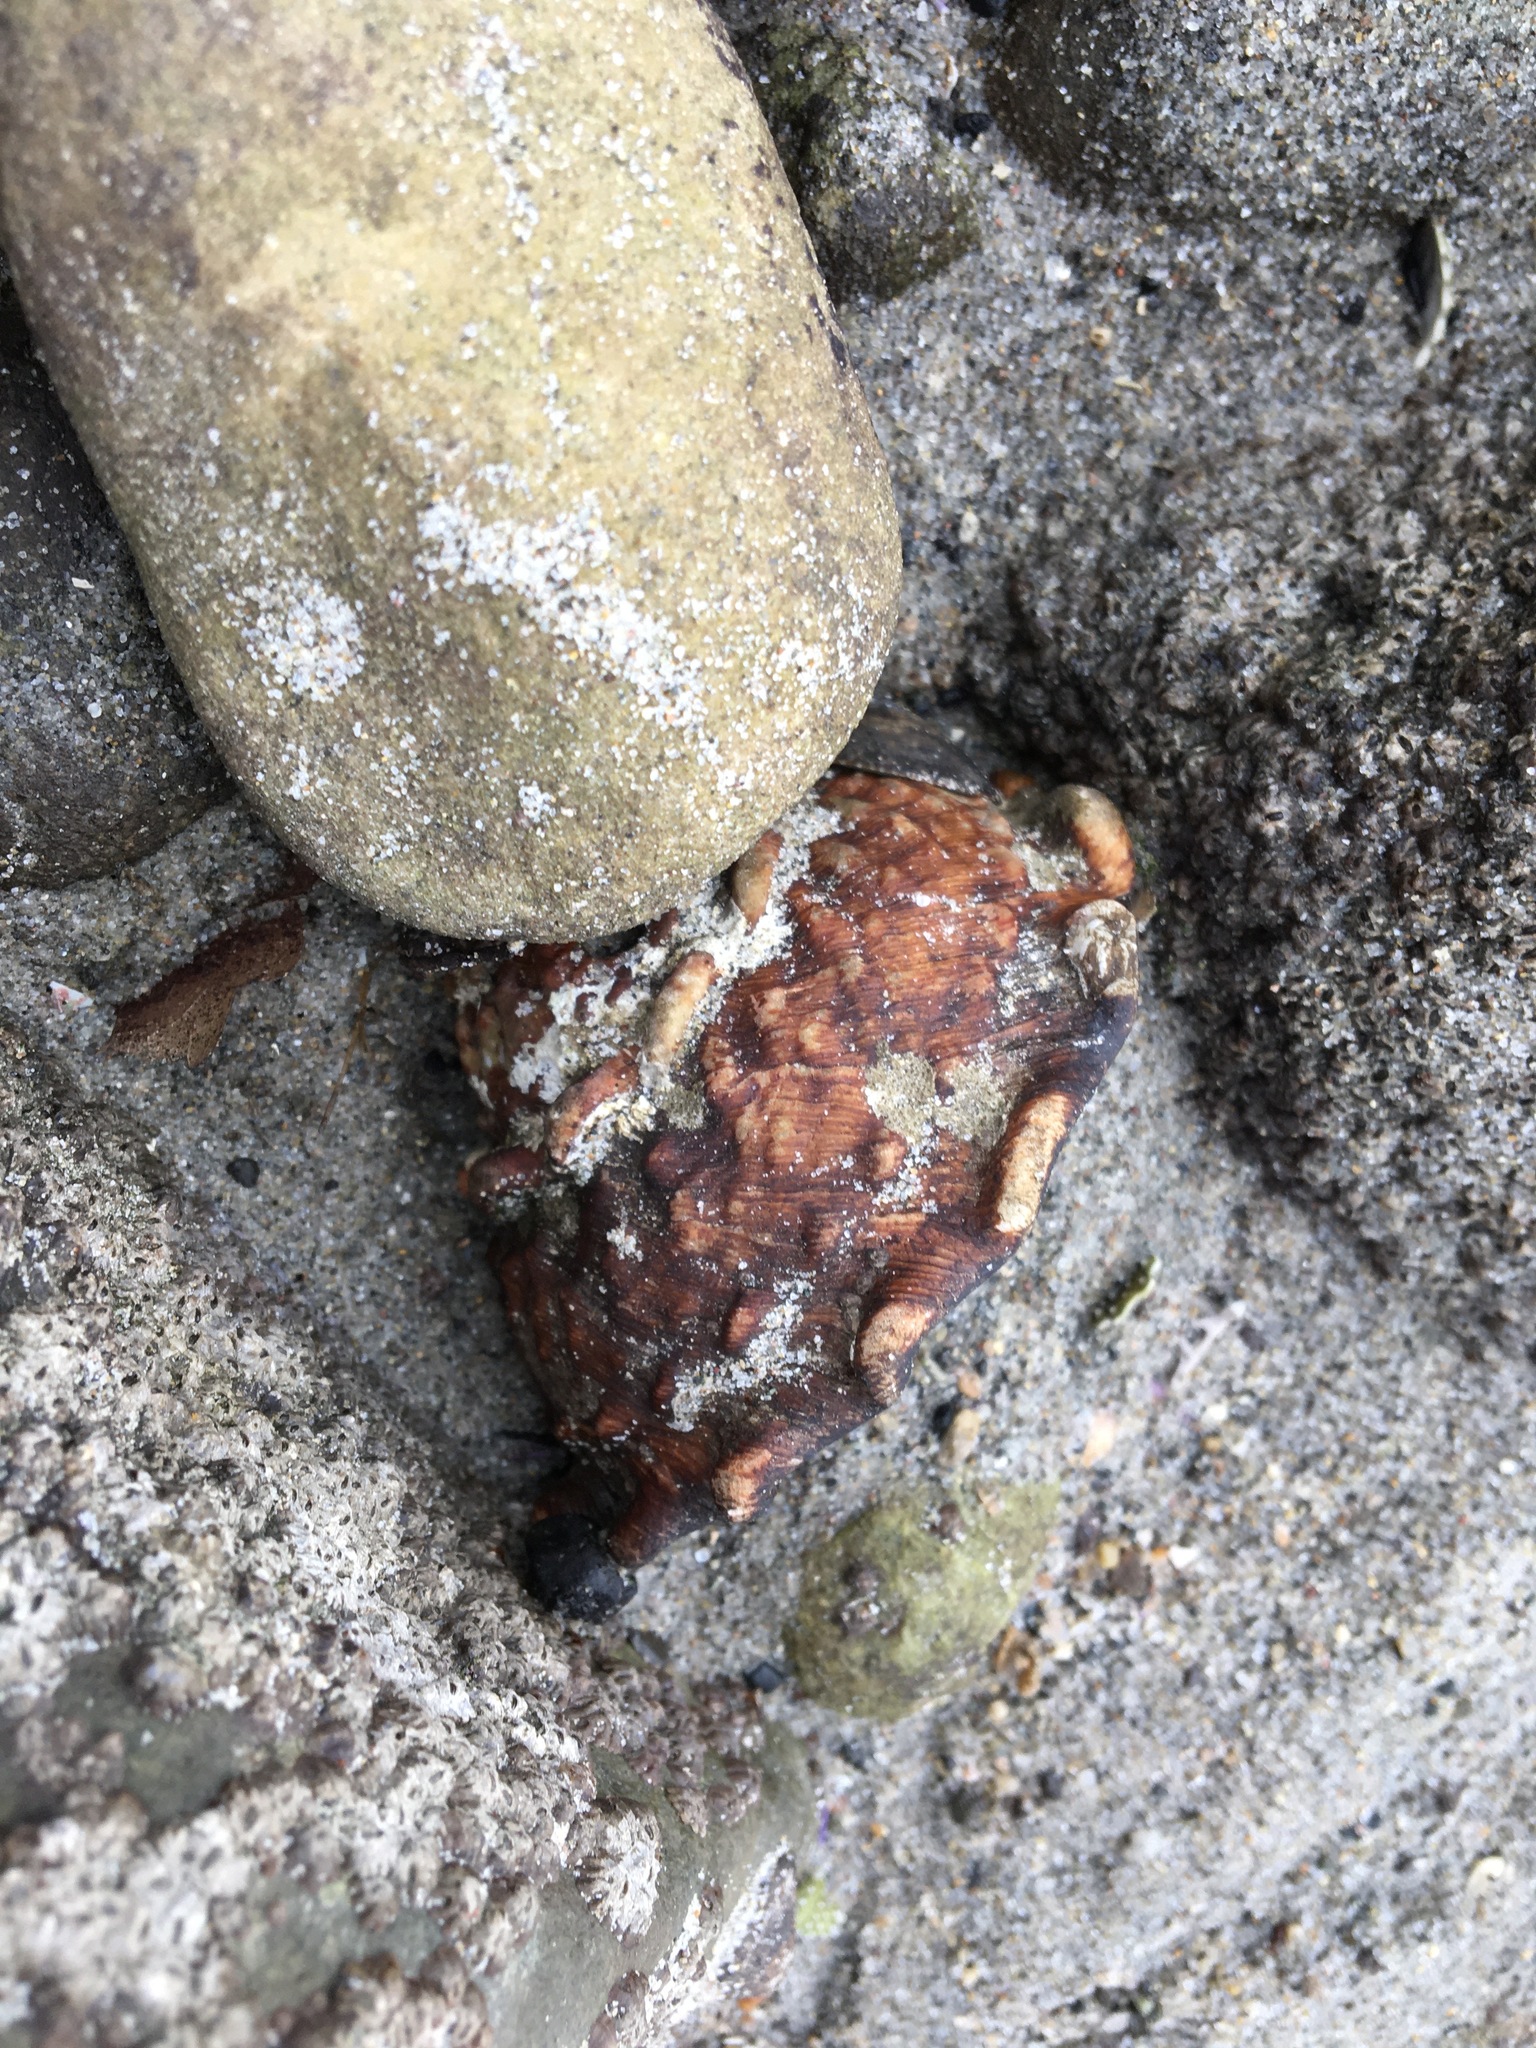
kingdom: Animalia
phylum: Mollusca
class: Gastropoda
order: Trochida
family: Turbinidae
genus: Megastraea
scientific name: Megastraea undosa
